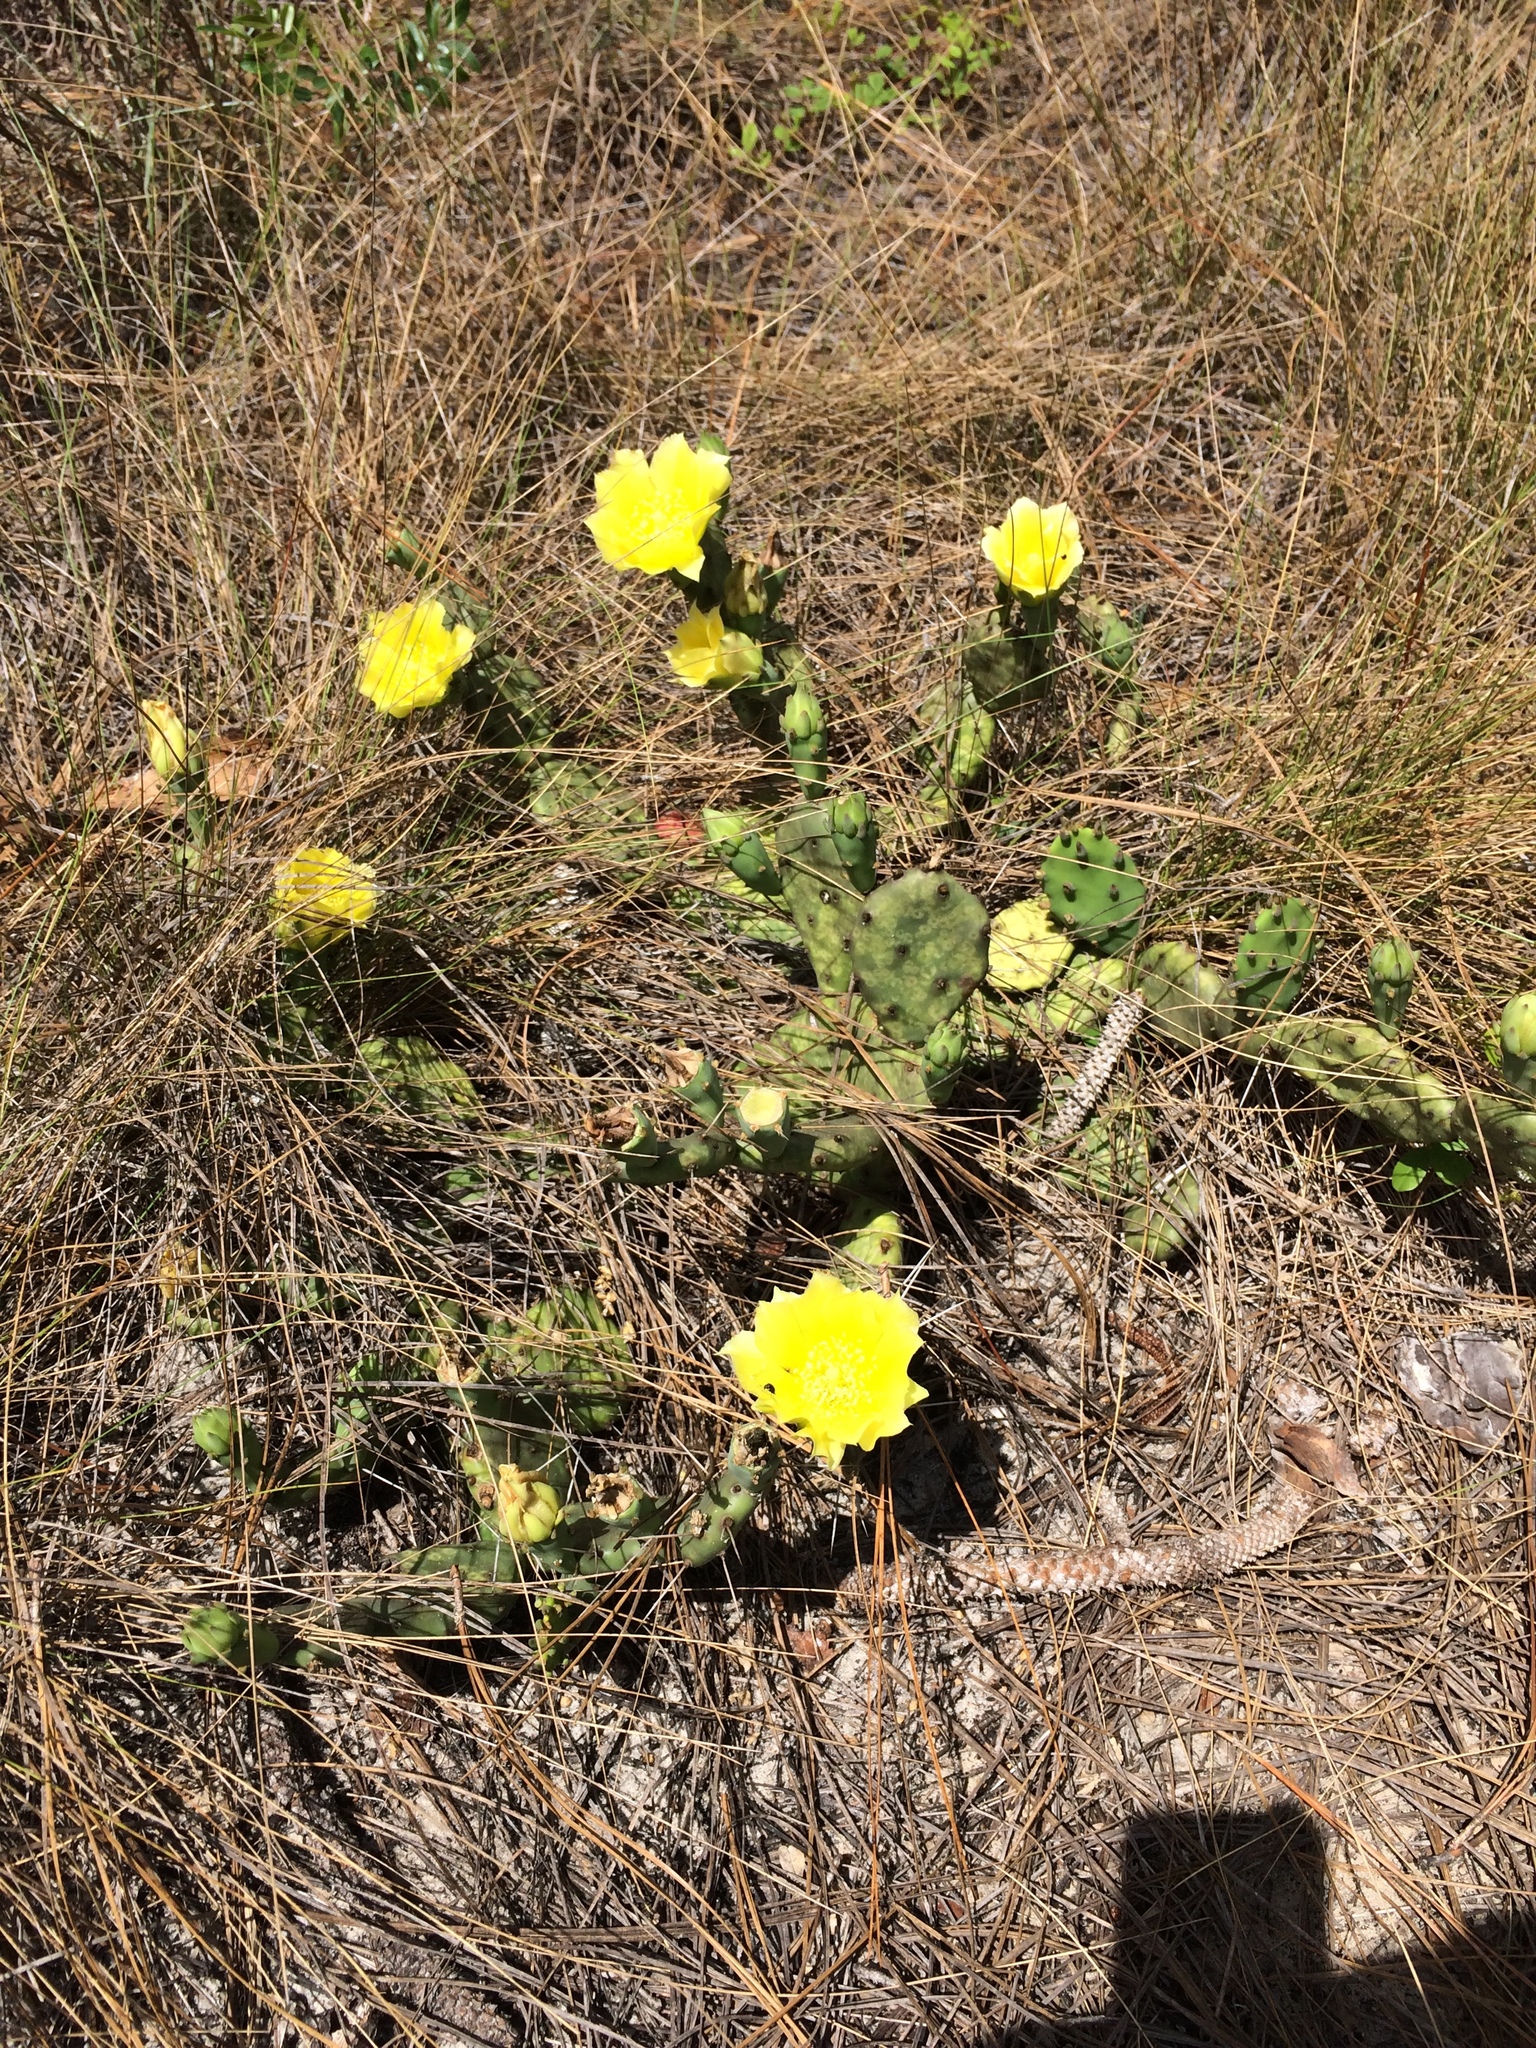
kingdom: Plantae
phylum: Tracheophyta
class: Magnoliopsida
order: Caryophyllales
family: Cactaceae
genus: Opuntia
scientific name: Opuntia humifusa
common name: Eastern prickly-pear
